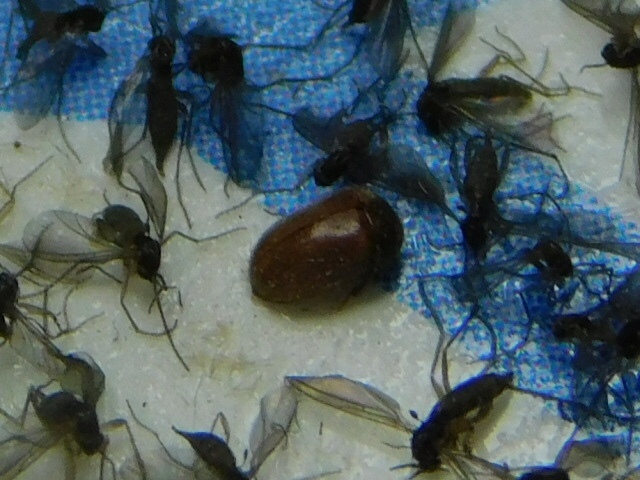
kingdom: Animalia
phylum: Arthropoda
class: Insecta
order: Coleoptera
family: Anobiidae
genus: Lasioderma
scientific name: Lasioderma serricorne
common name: Cigarette beetle
